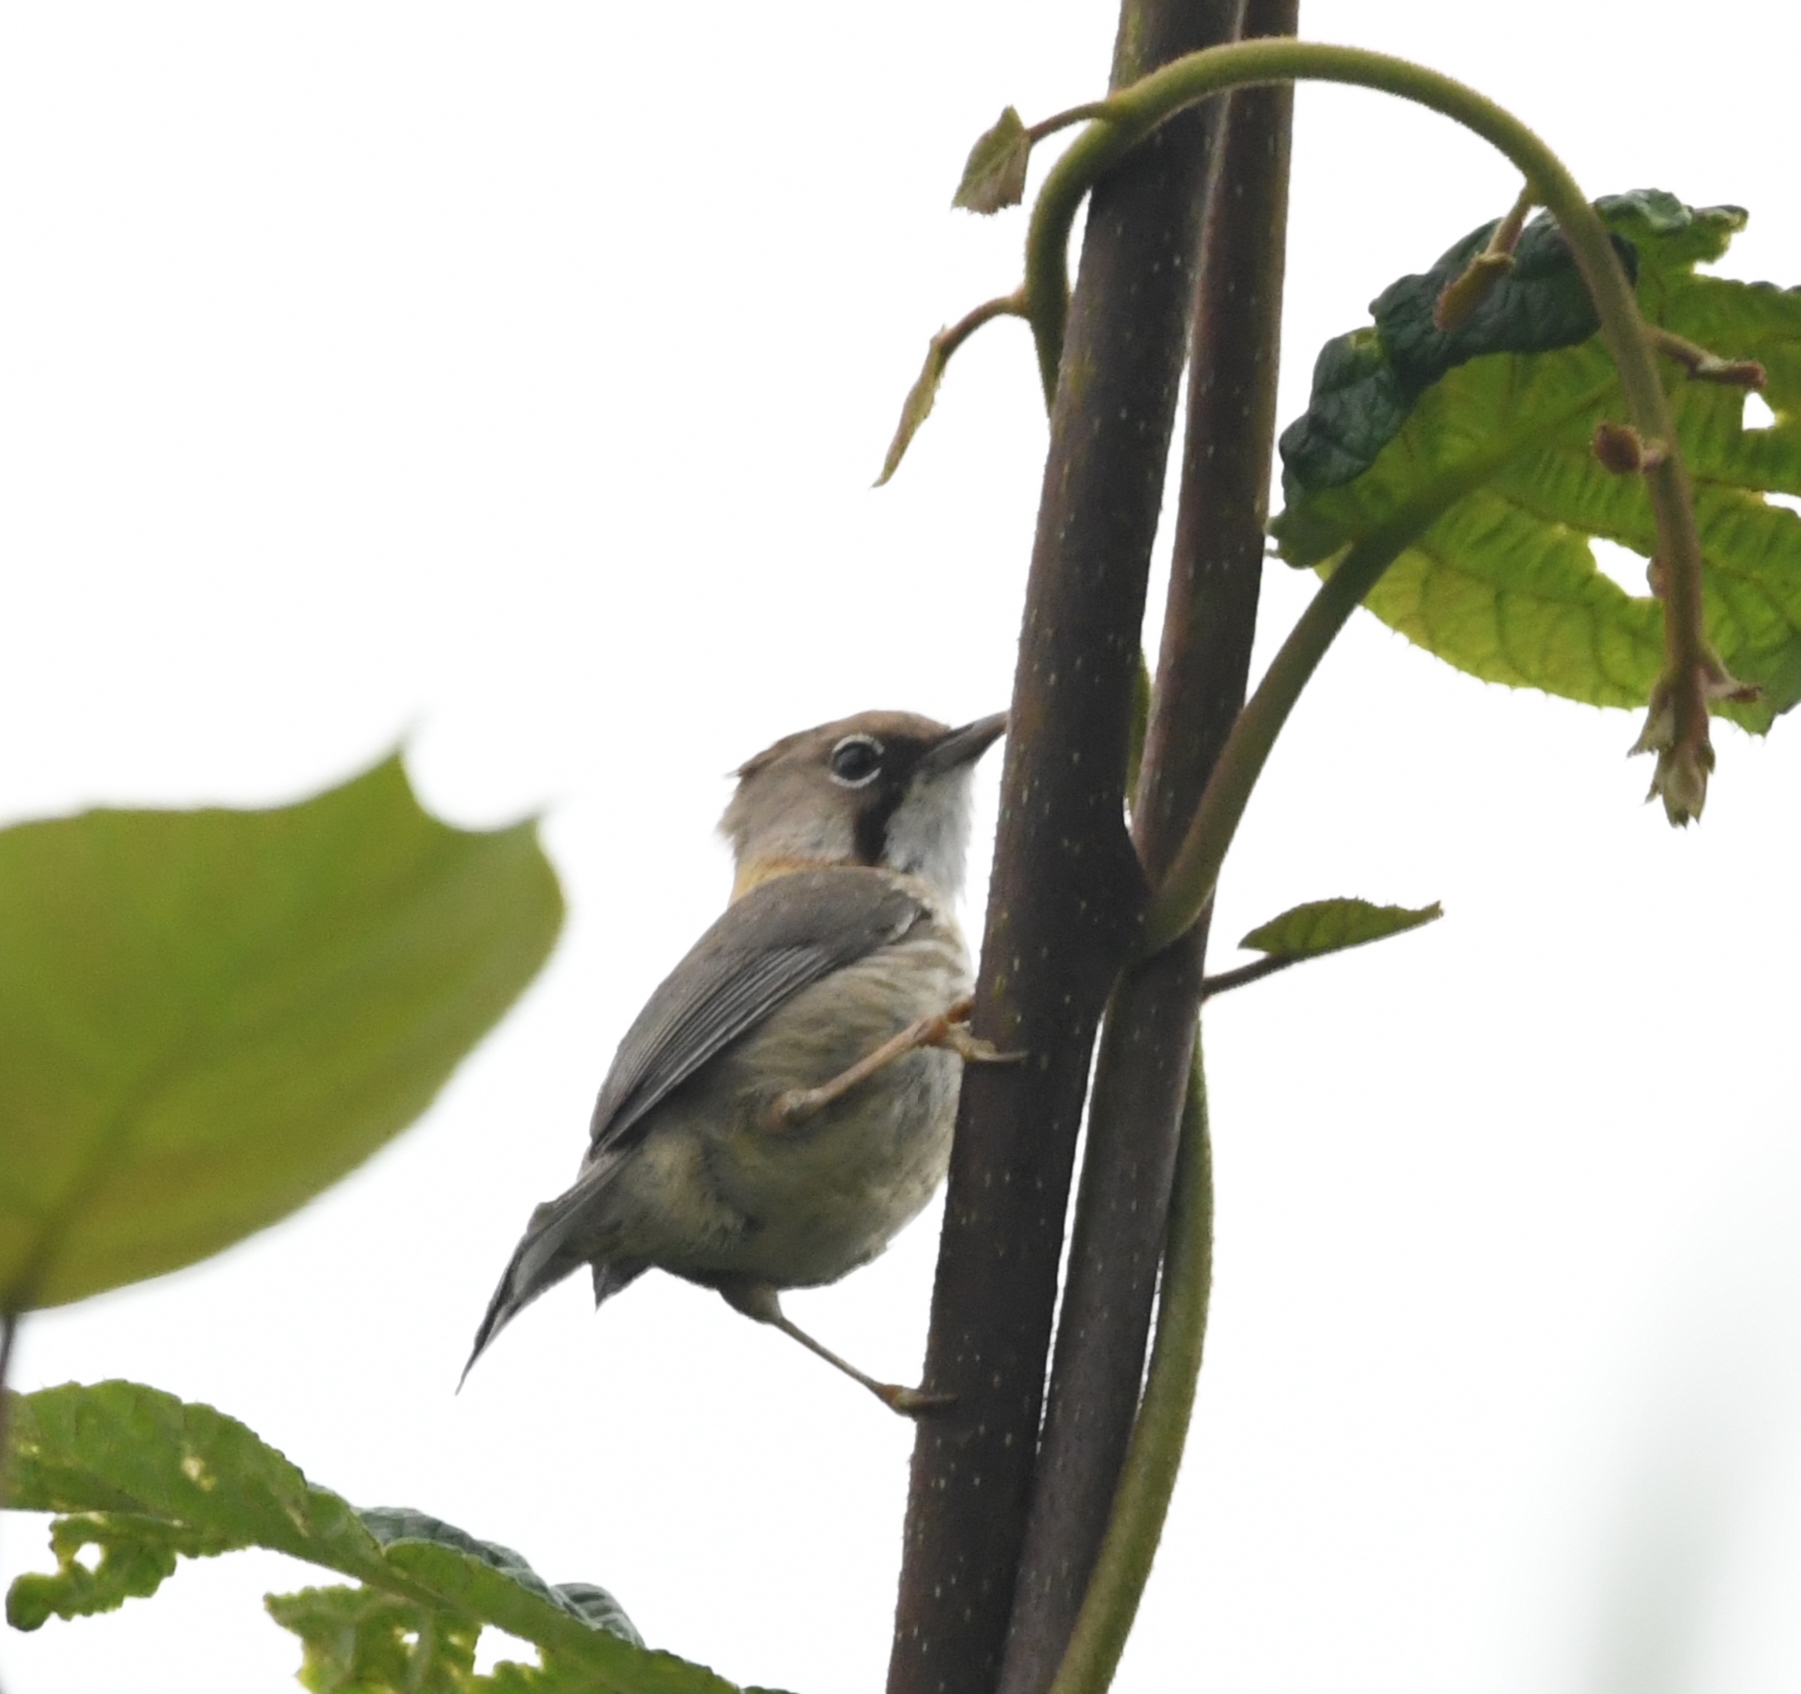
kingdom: Animalia
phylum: Chordata
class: Aves
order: Passeriformes
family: Zosteropidae
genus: Yuhina
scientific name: Yuhina flavicollis
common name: Whiskered yuhina
